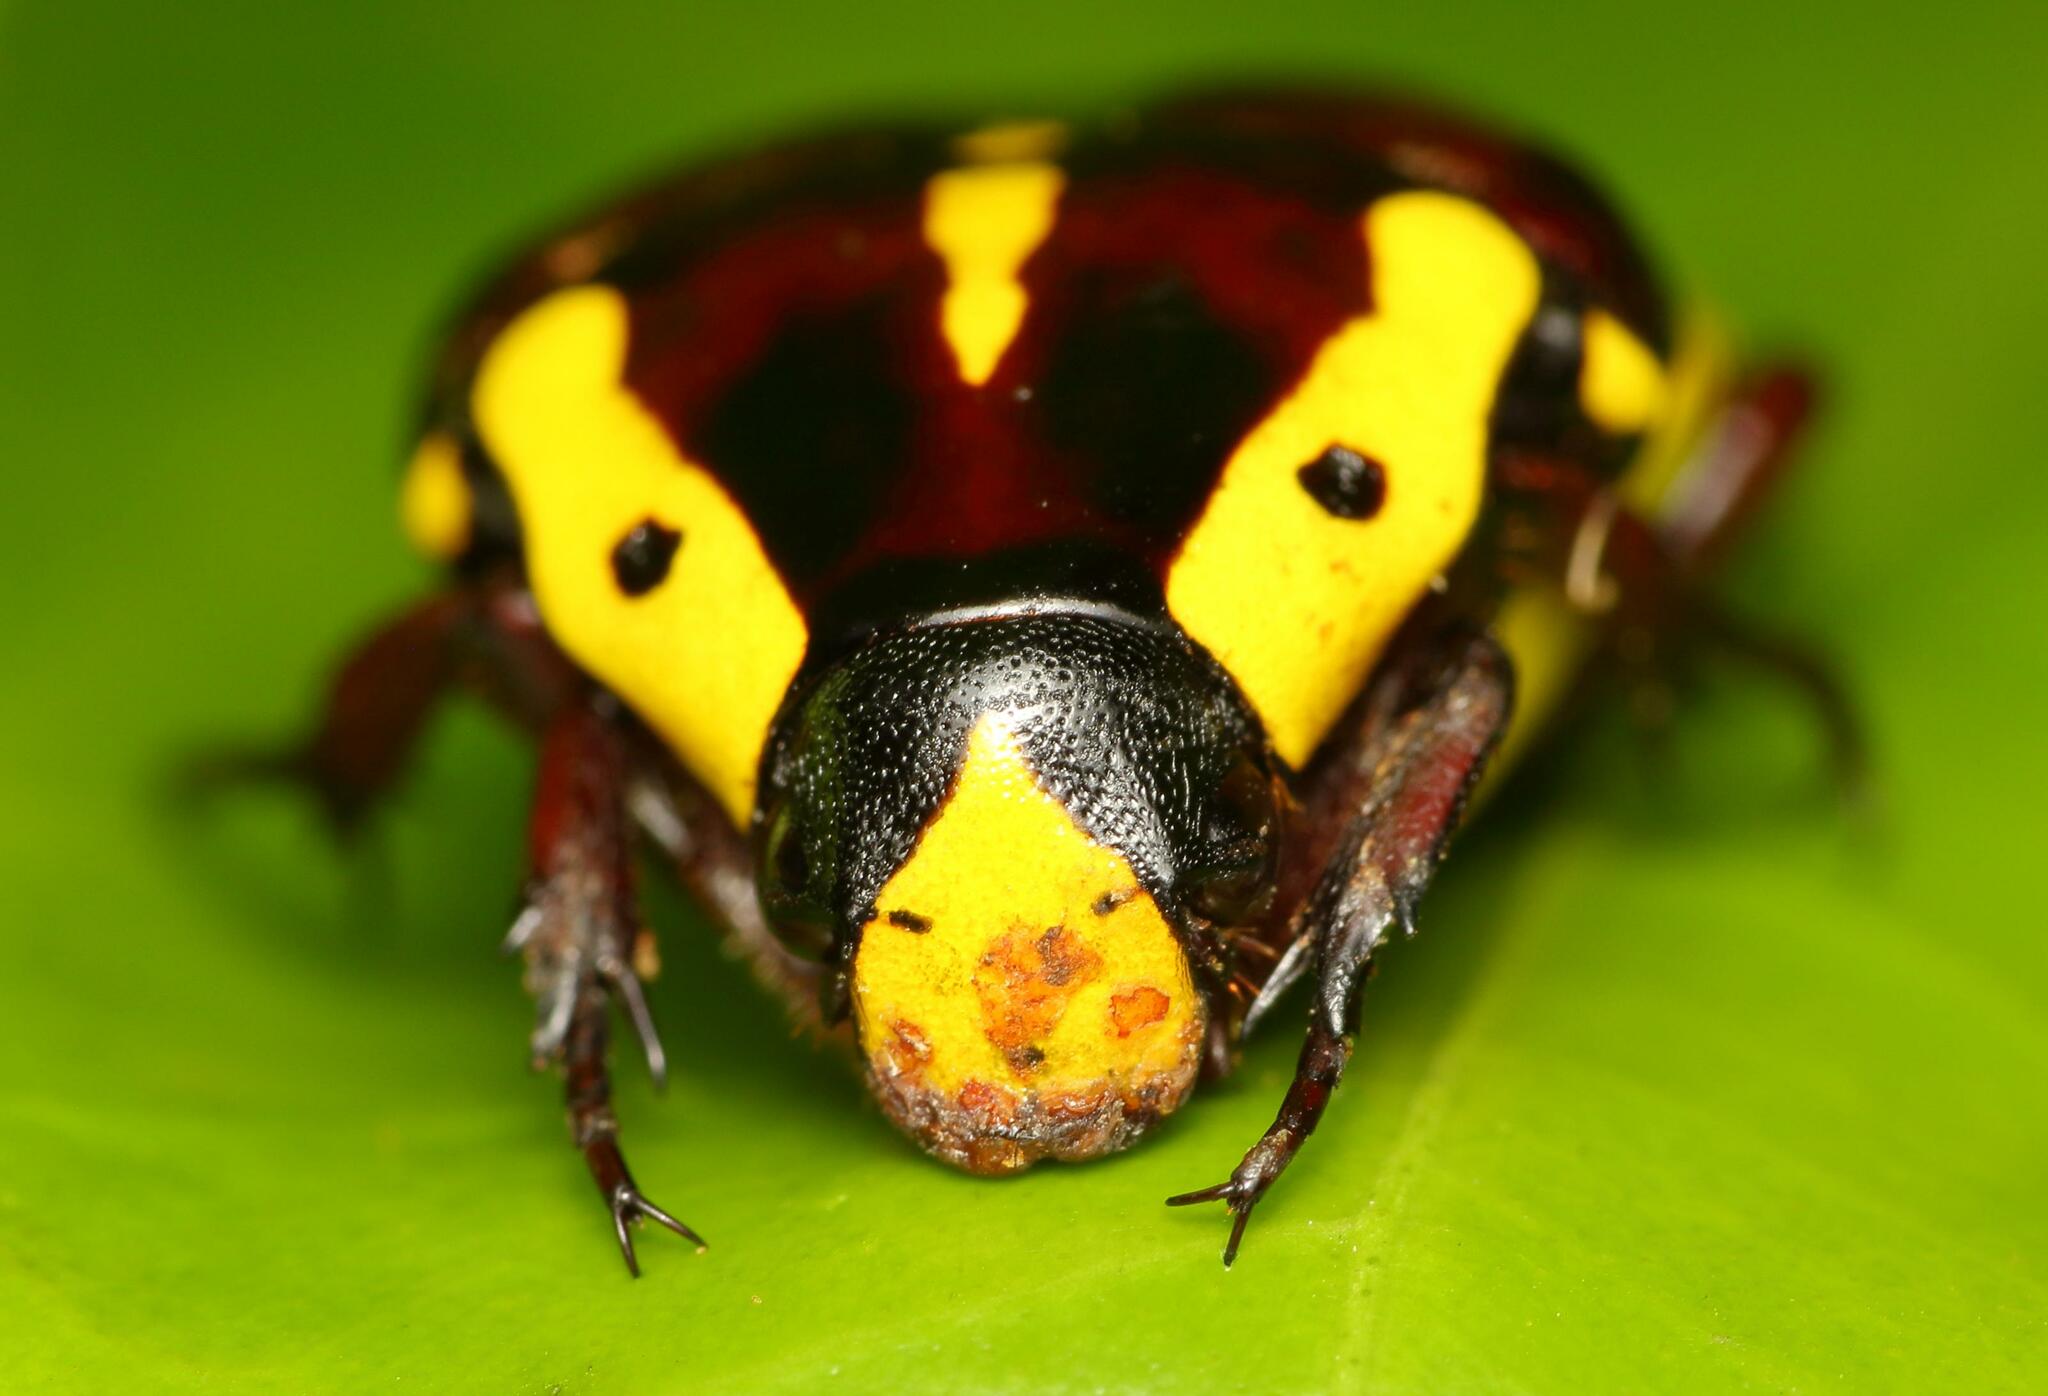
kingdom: Animalia
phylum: Arthropoda
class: Insecta
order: Coleoptera
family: Scarabaeidae
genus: Campsiura
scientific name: Campsiura cognata
